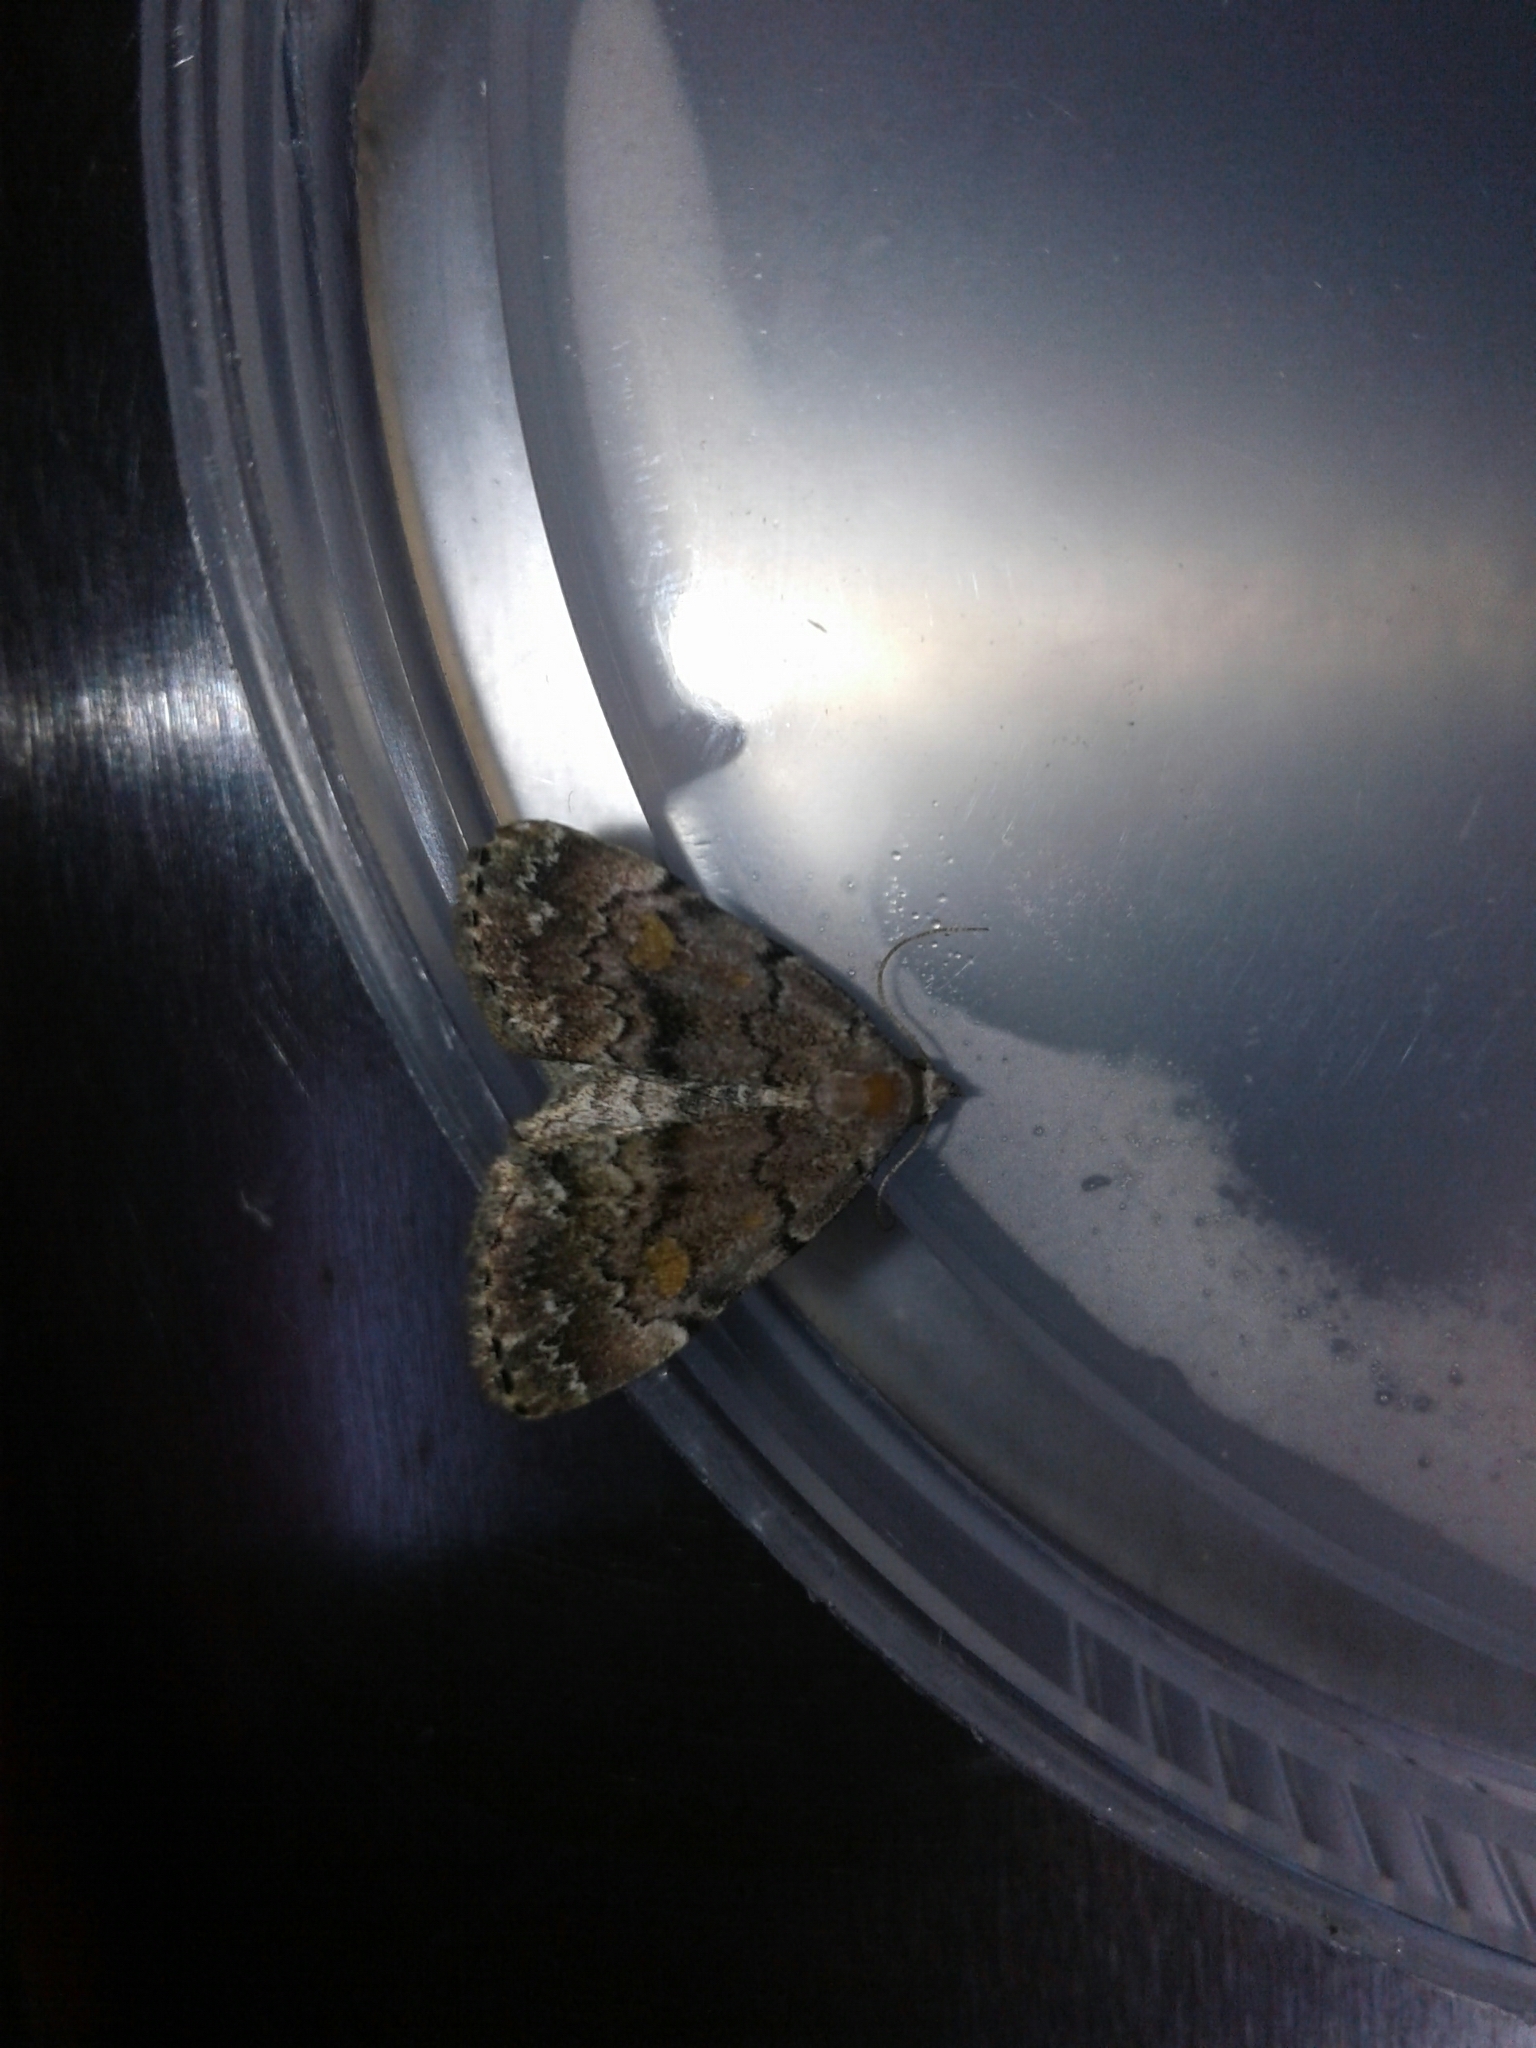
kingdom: Animalia
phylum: Arthropoda
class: Insecta
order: Lepidoptera
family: Erebidae
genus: Idia
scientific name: Idia aemula
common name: Common idia moth
